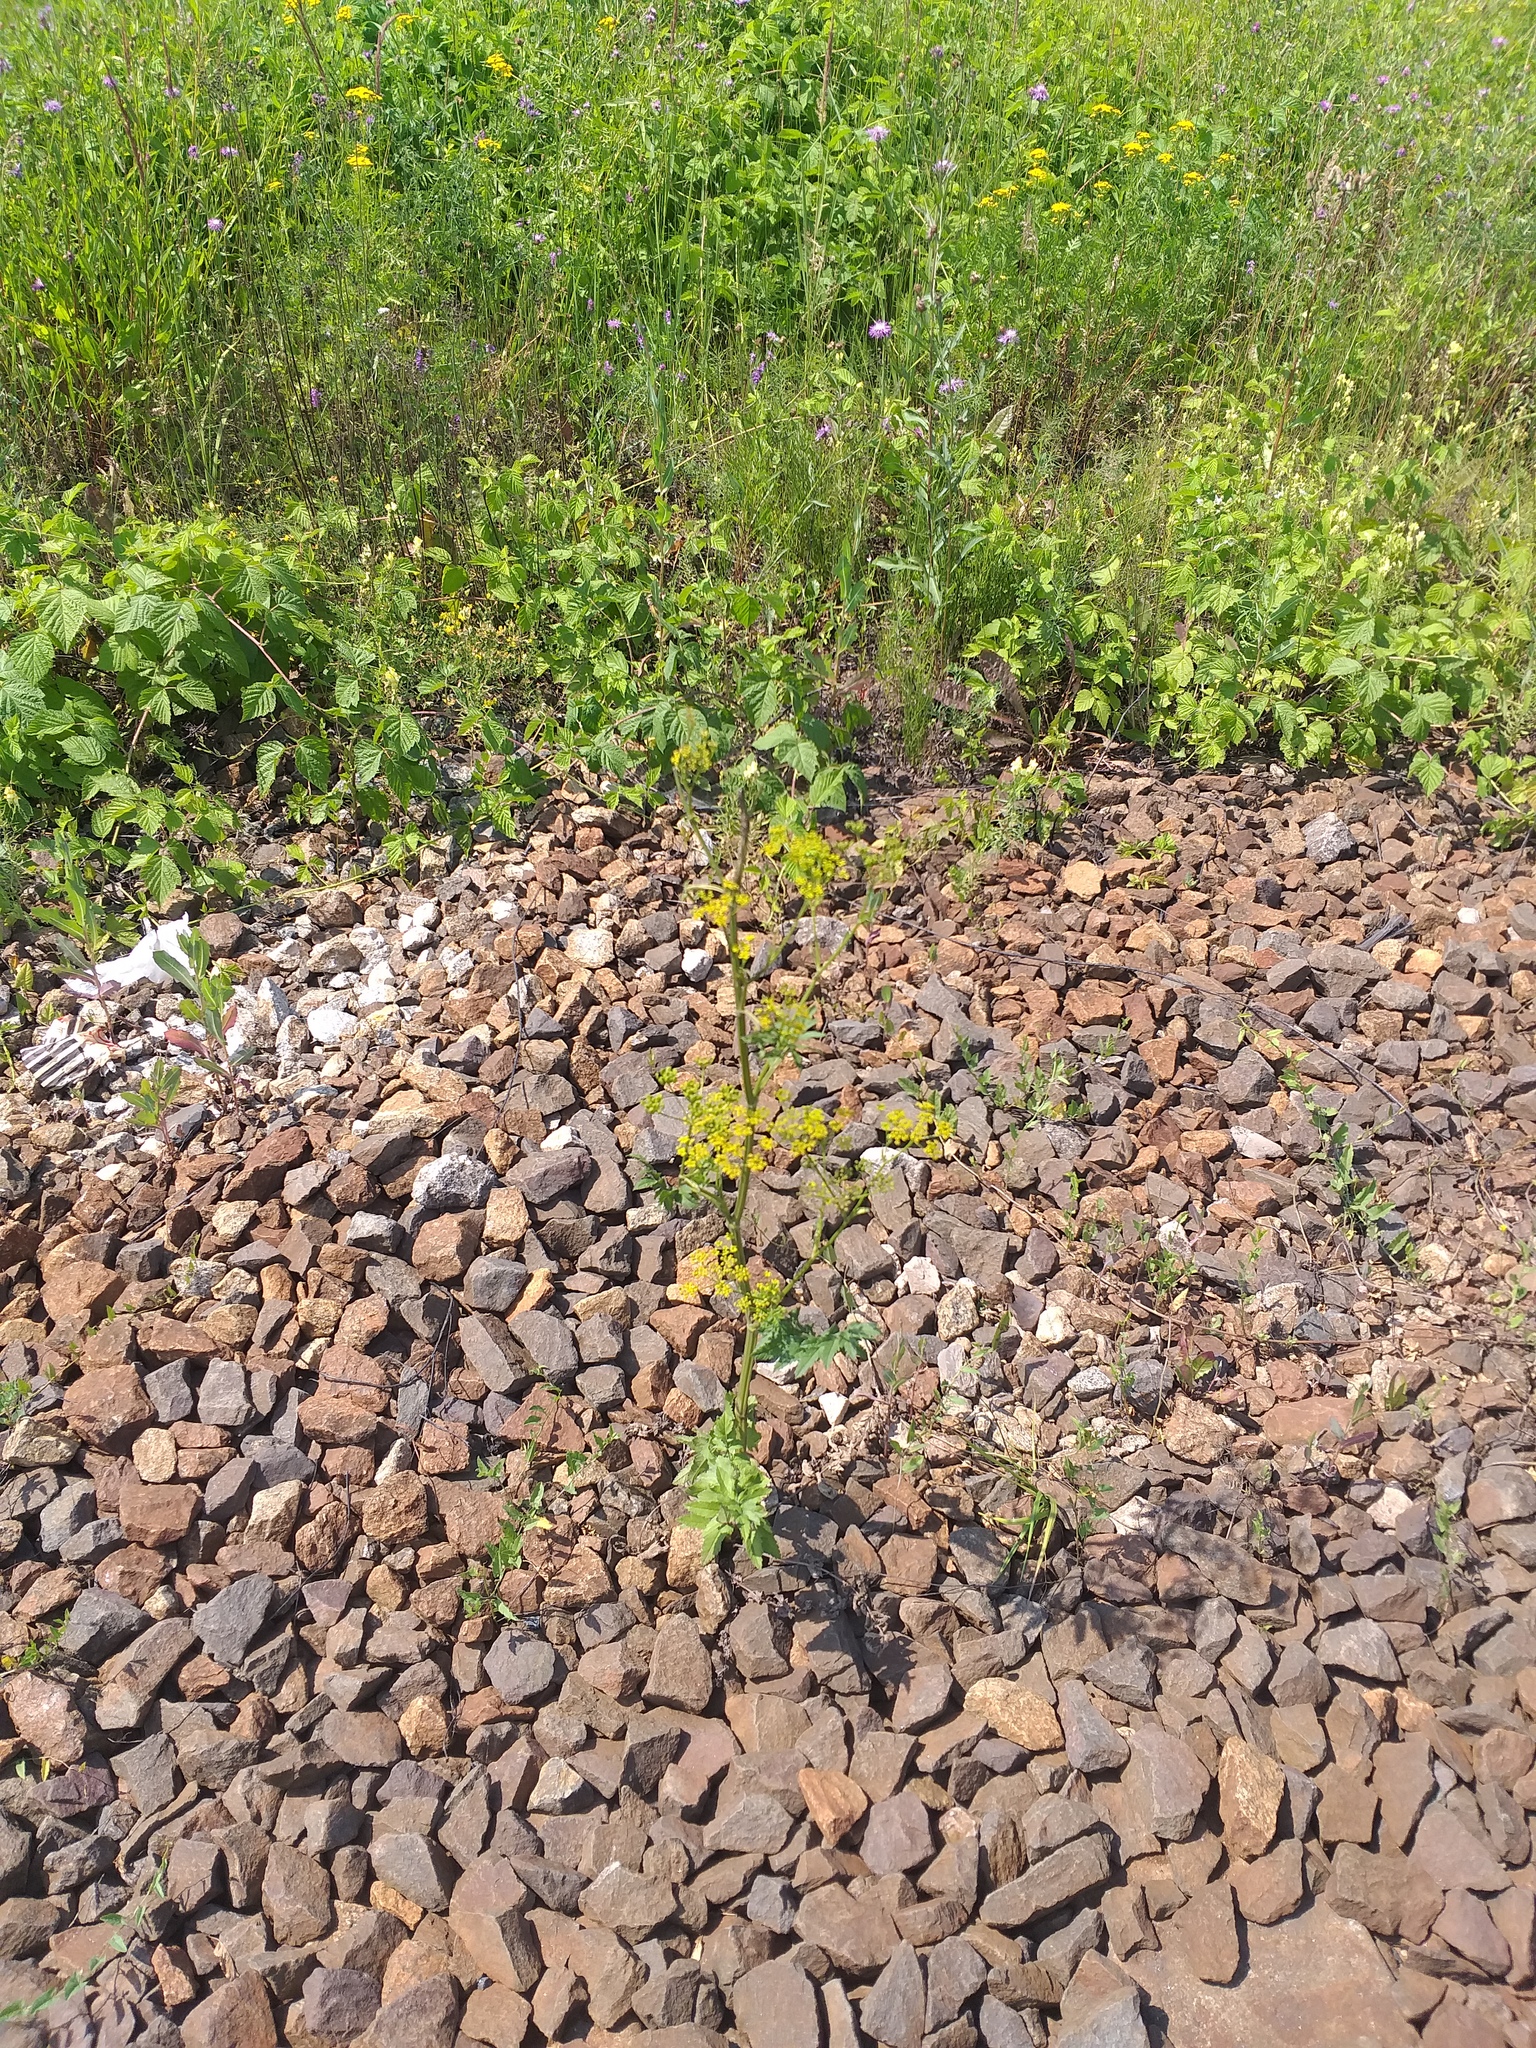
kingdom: Plantae
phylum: Tracheophyta
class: Magnoliopsida
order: Apiales
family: Apiaceae
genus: Pastinaca
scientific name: Pastinaca sativa
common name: Wild parsnip
